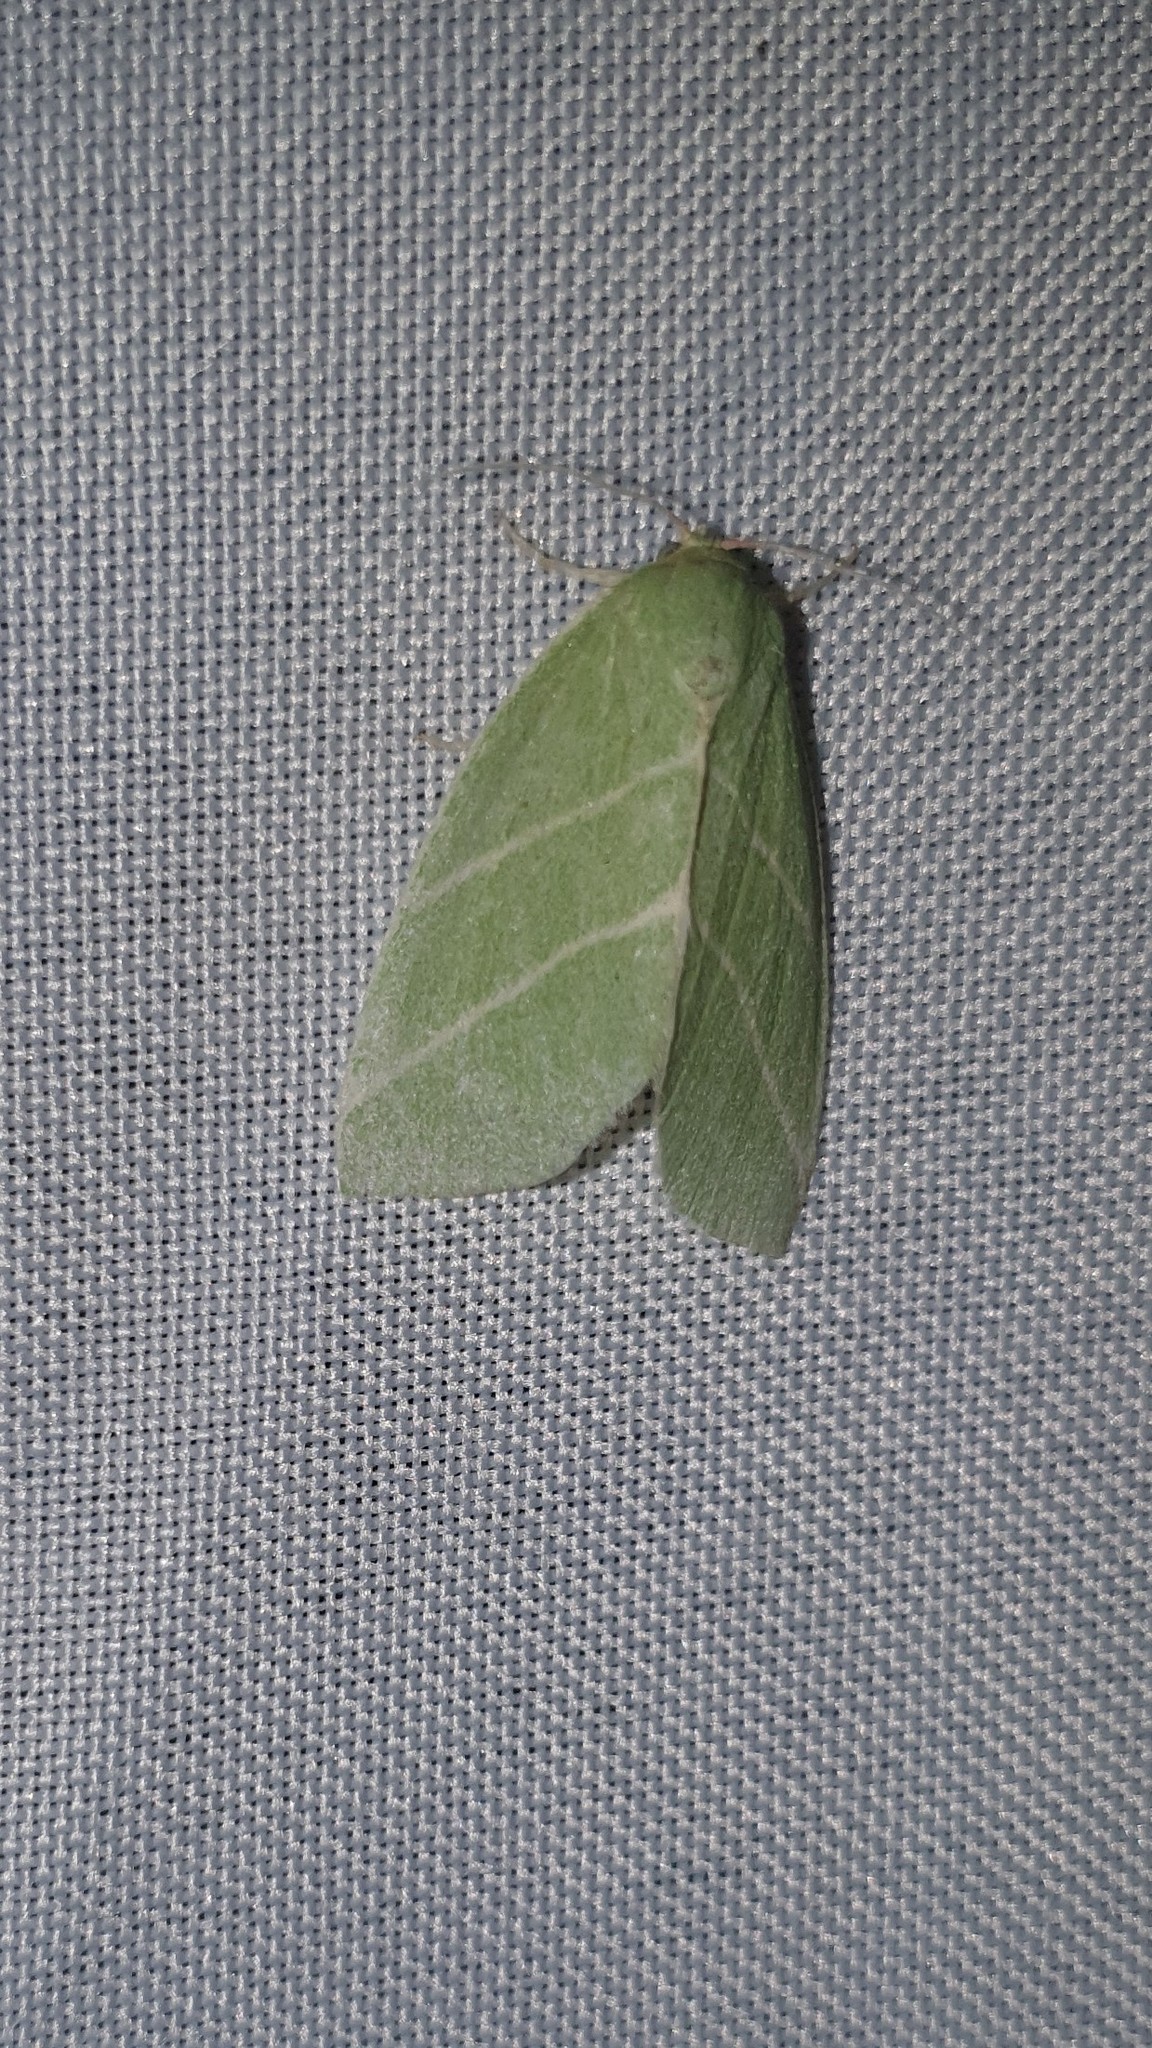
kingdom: Animalia
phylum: Arthropoda
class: Insecta
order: Lepidoptera
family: Nolidae
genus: Bena
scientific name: Bena bicolorana
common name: Scarce silver-lines
